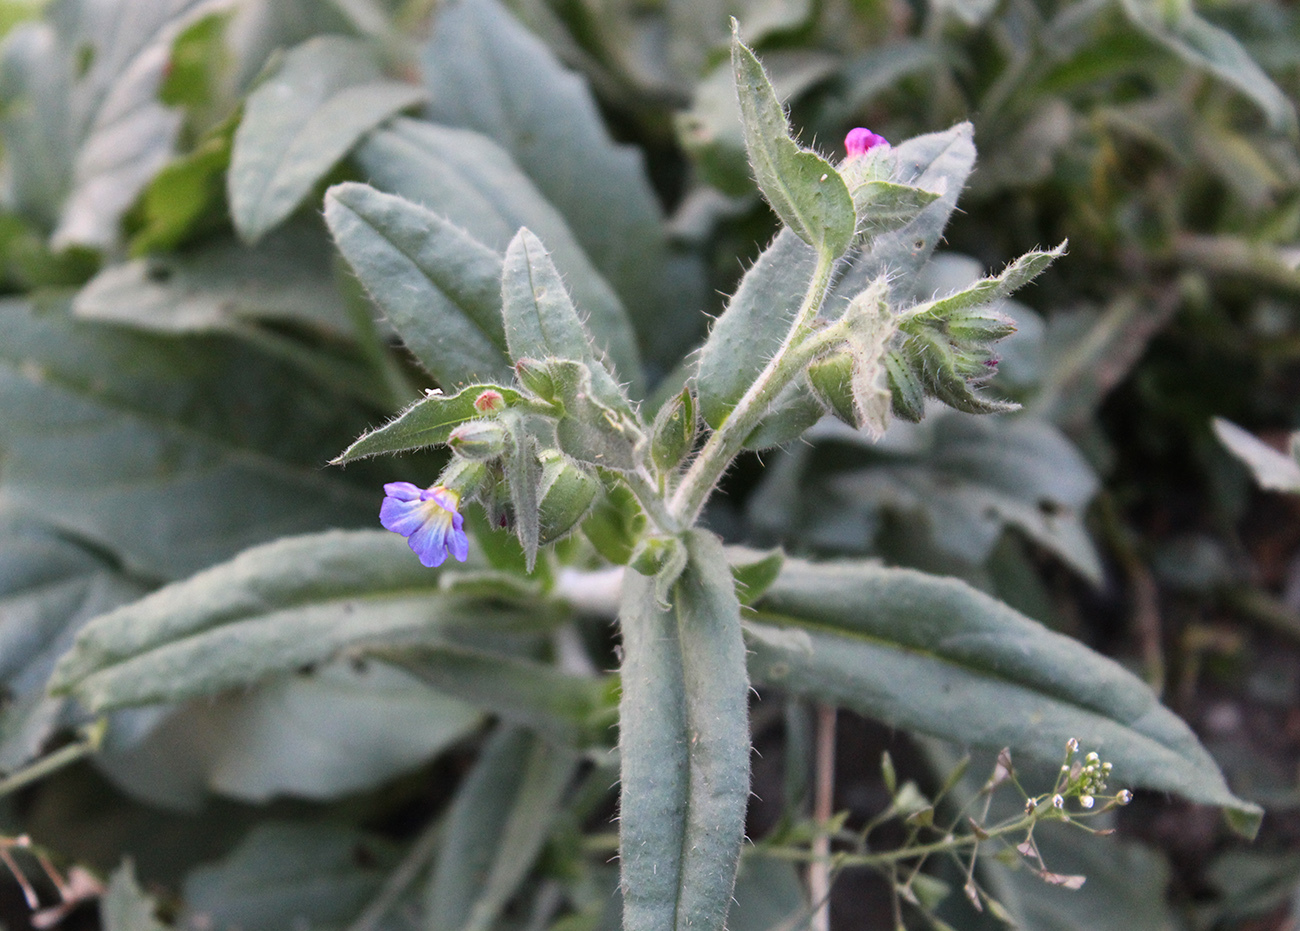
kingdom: Plantae
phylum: Tracheophyta
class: Magnoliopsida
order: Boraginales
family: Boraginaceae
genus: Nonea
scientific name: Nonea versicolor
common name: Varied monkswort
